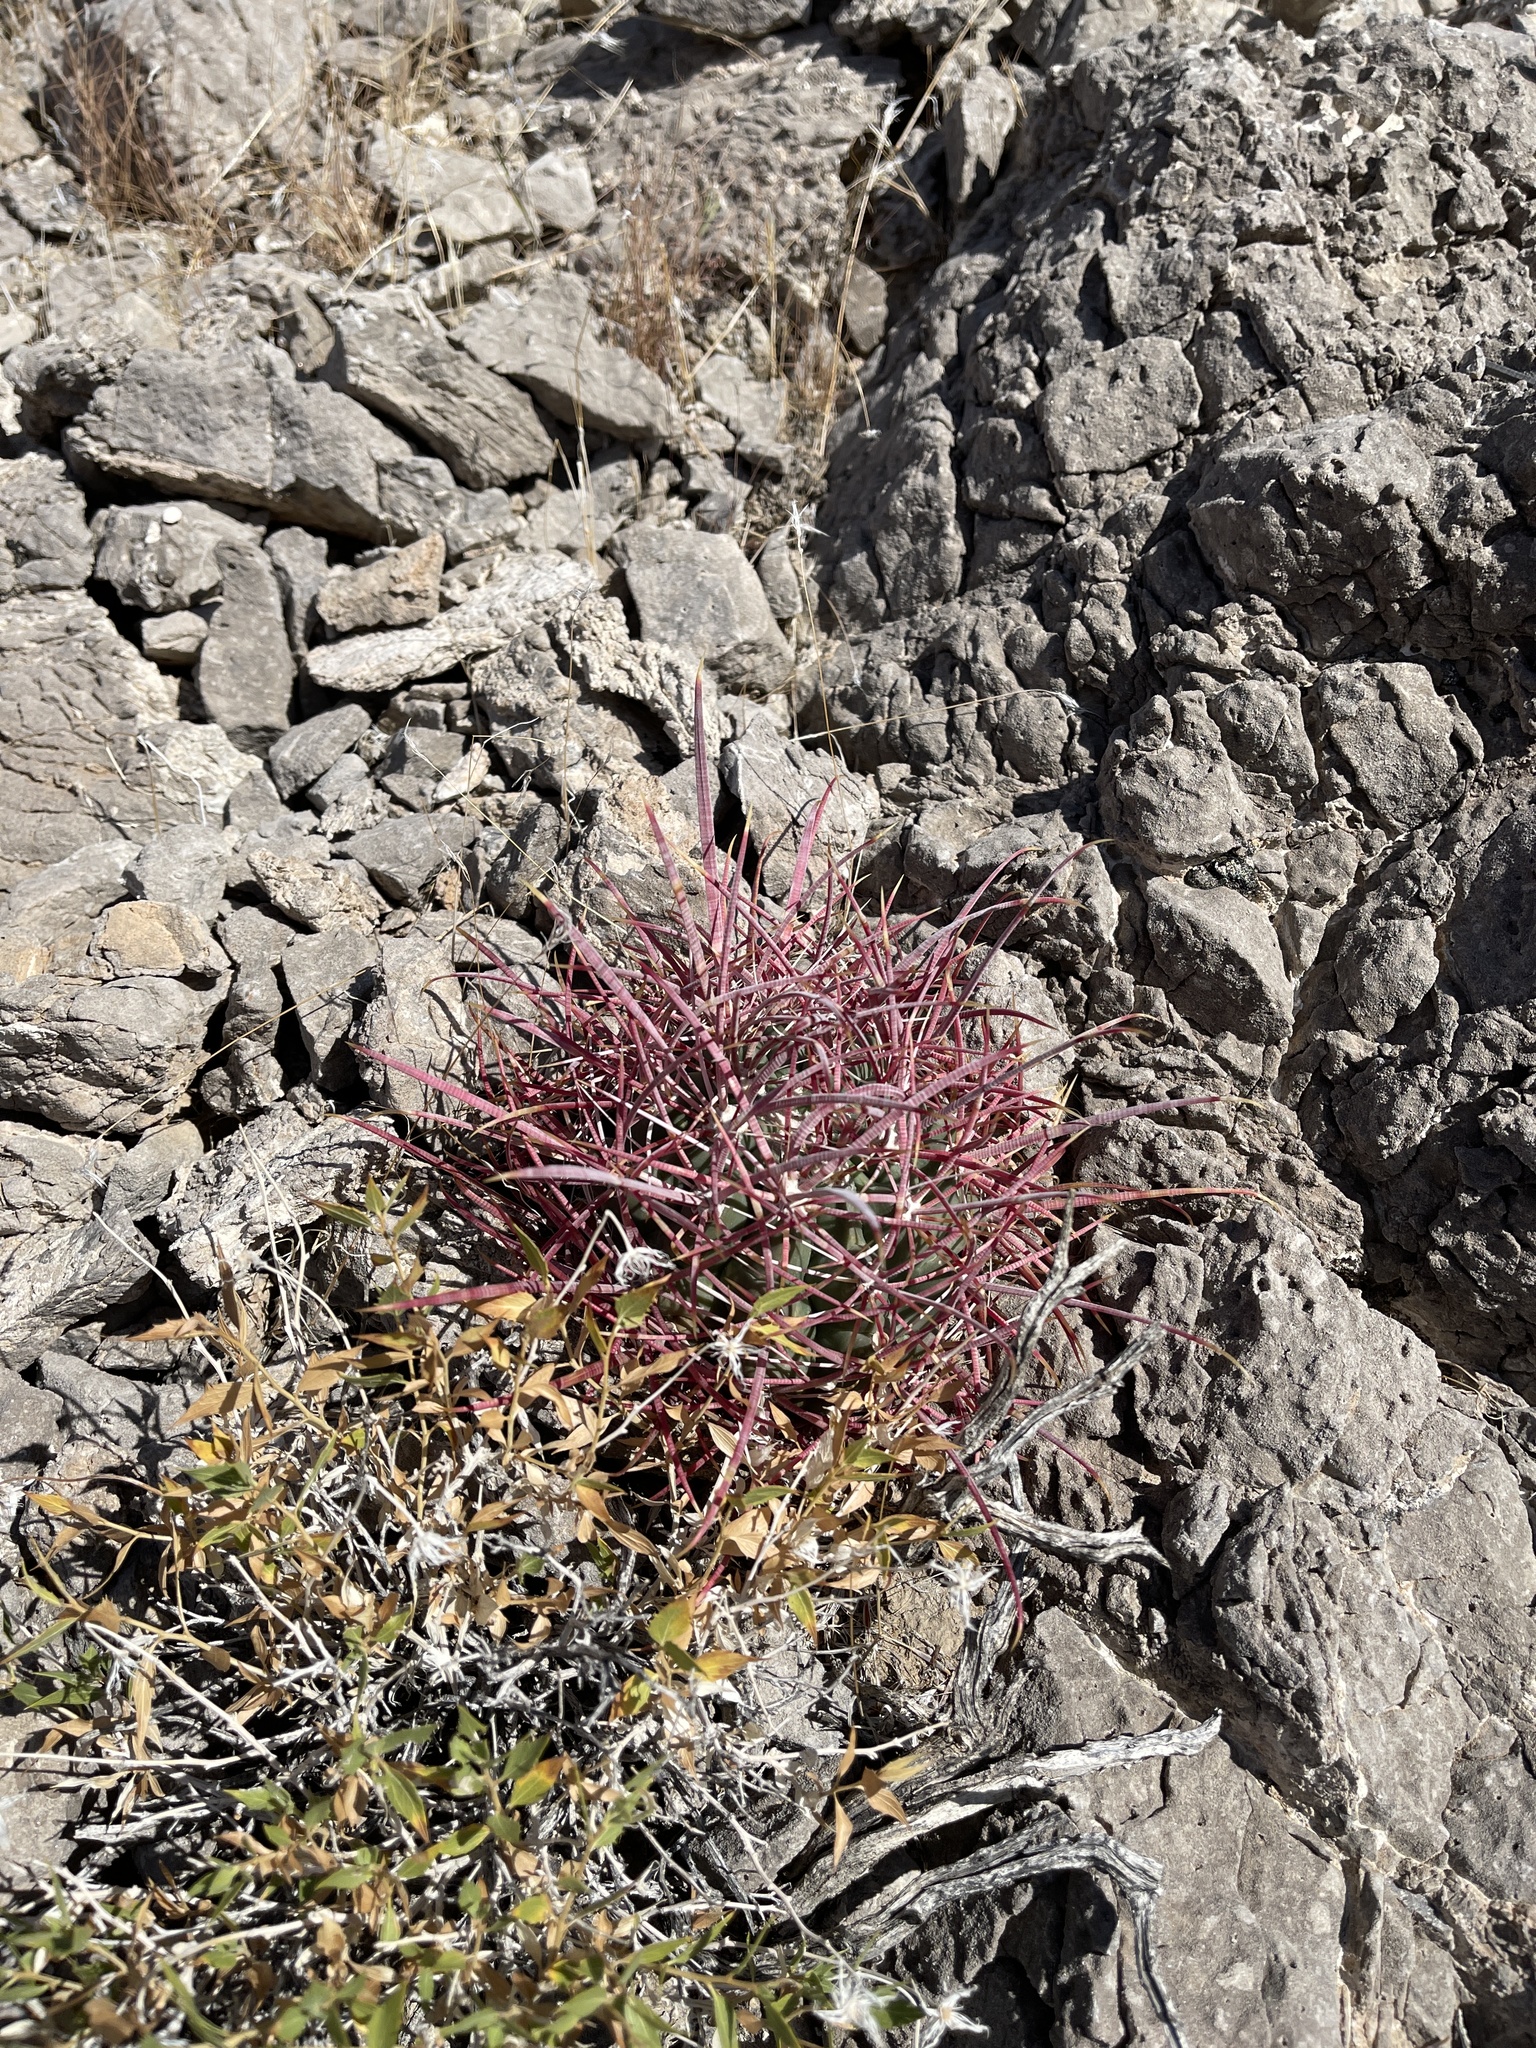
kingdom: Plantae
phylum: Tracheophyta
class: Magnoliopsida
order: Caryophyllales
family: Cactaceae
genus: Ferocactus
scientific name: Ferocactus cylindraceus
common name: California barrel cactus
